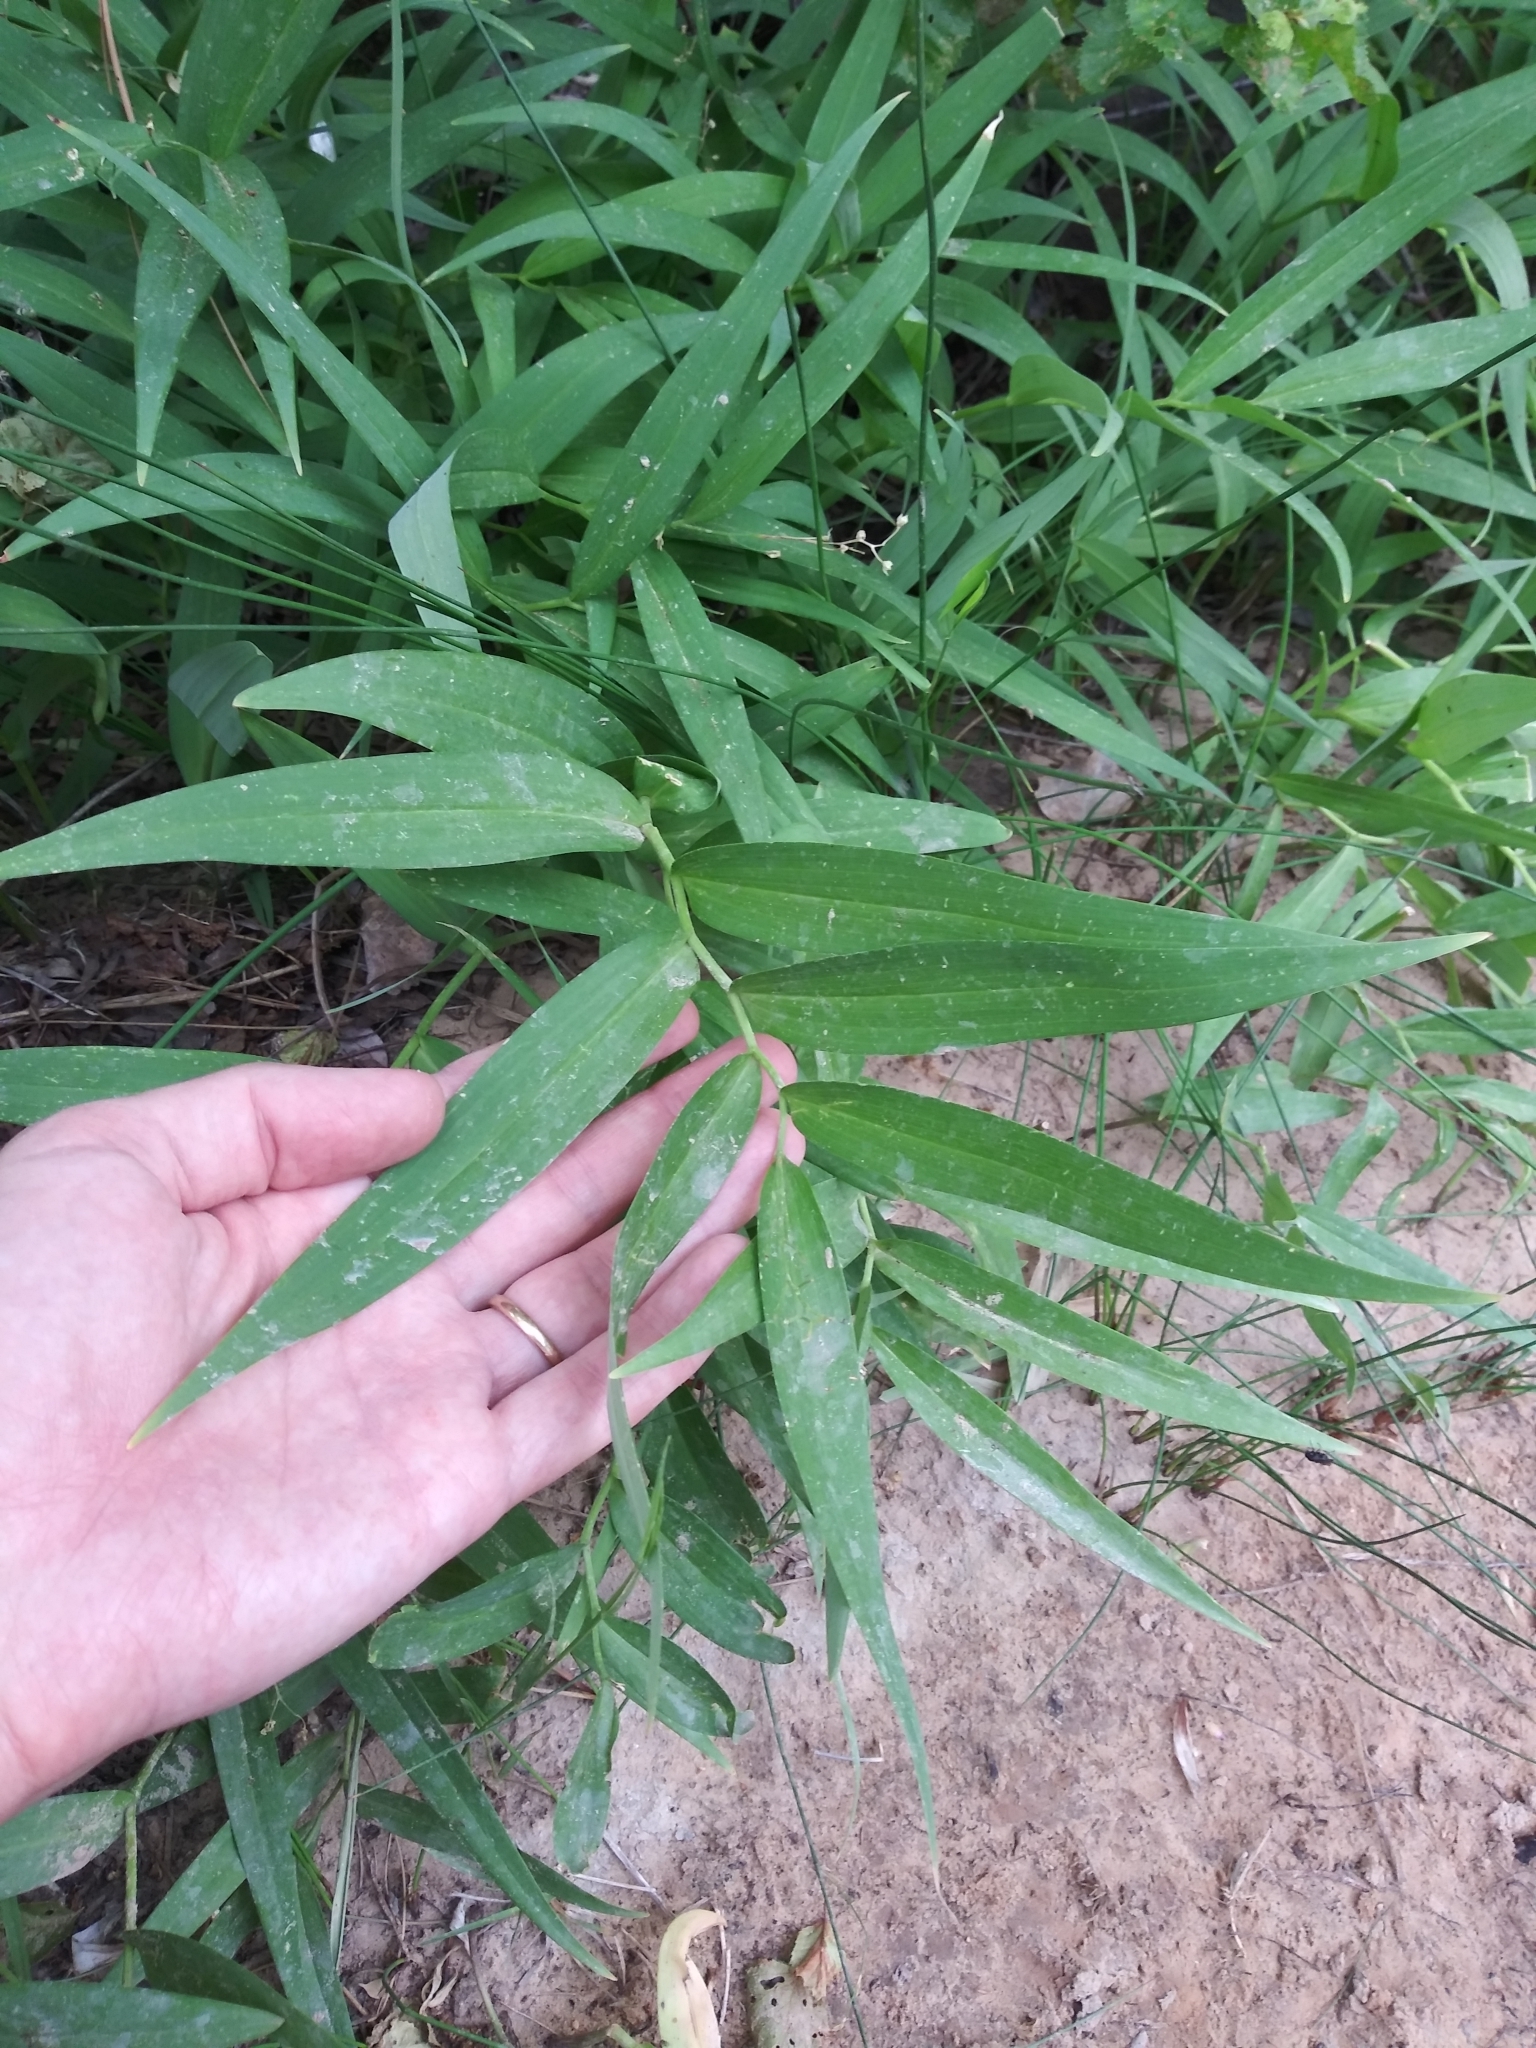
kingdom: Plantae
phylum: Tracheophyta
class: Liliopsida
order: Asparagales
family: Asparagaceae
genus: Maianthemum
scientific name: Maianthemum stellatum
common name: Little false solomon's seal
